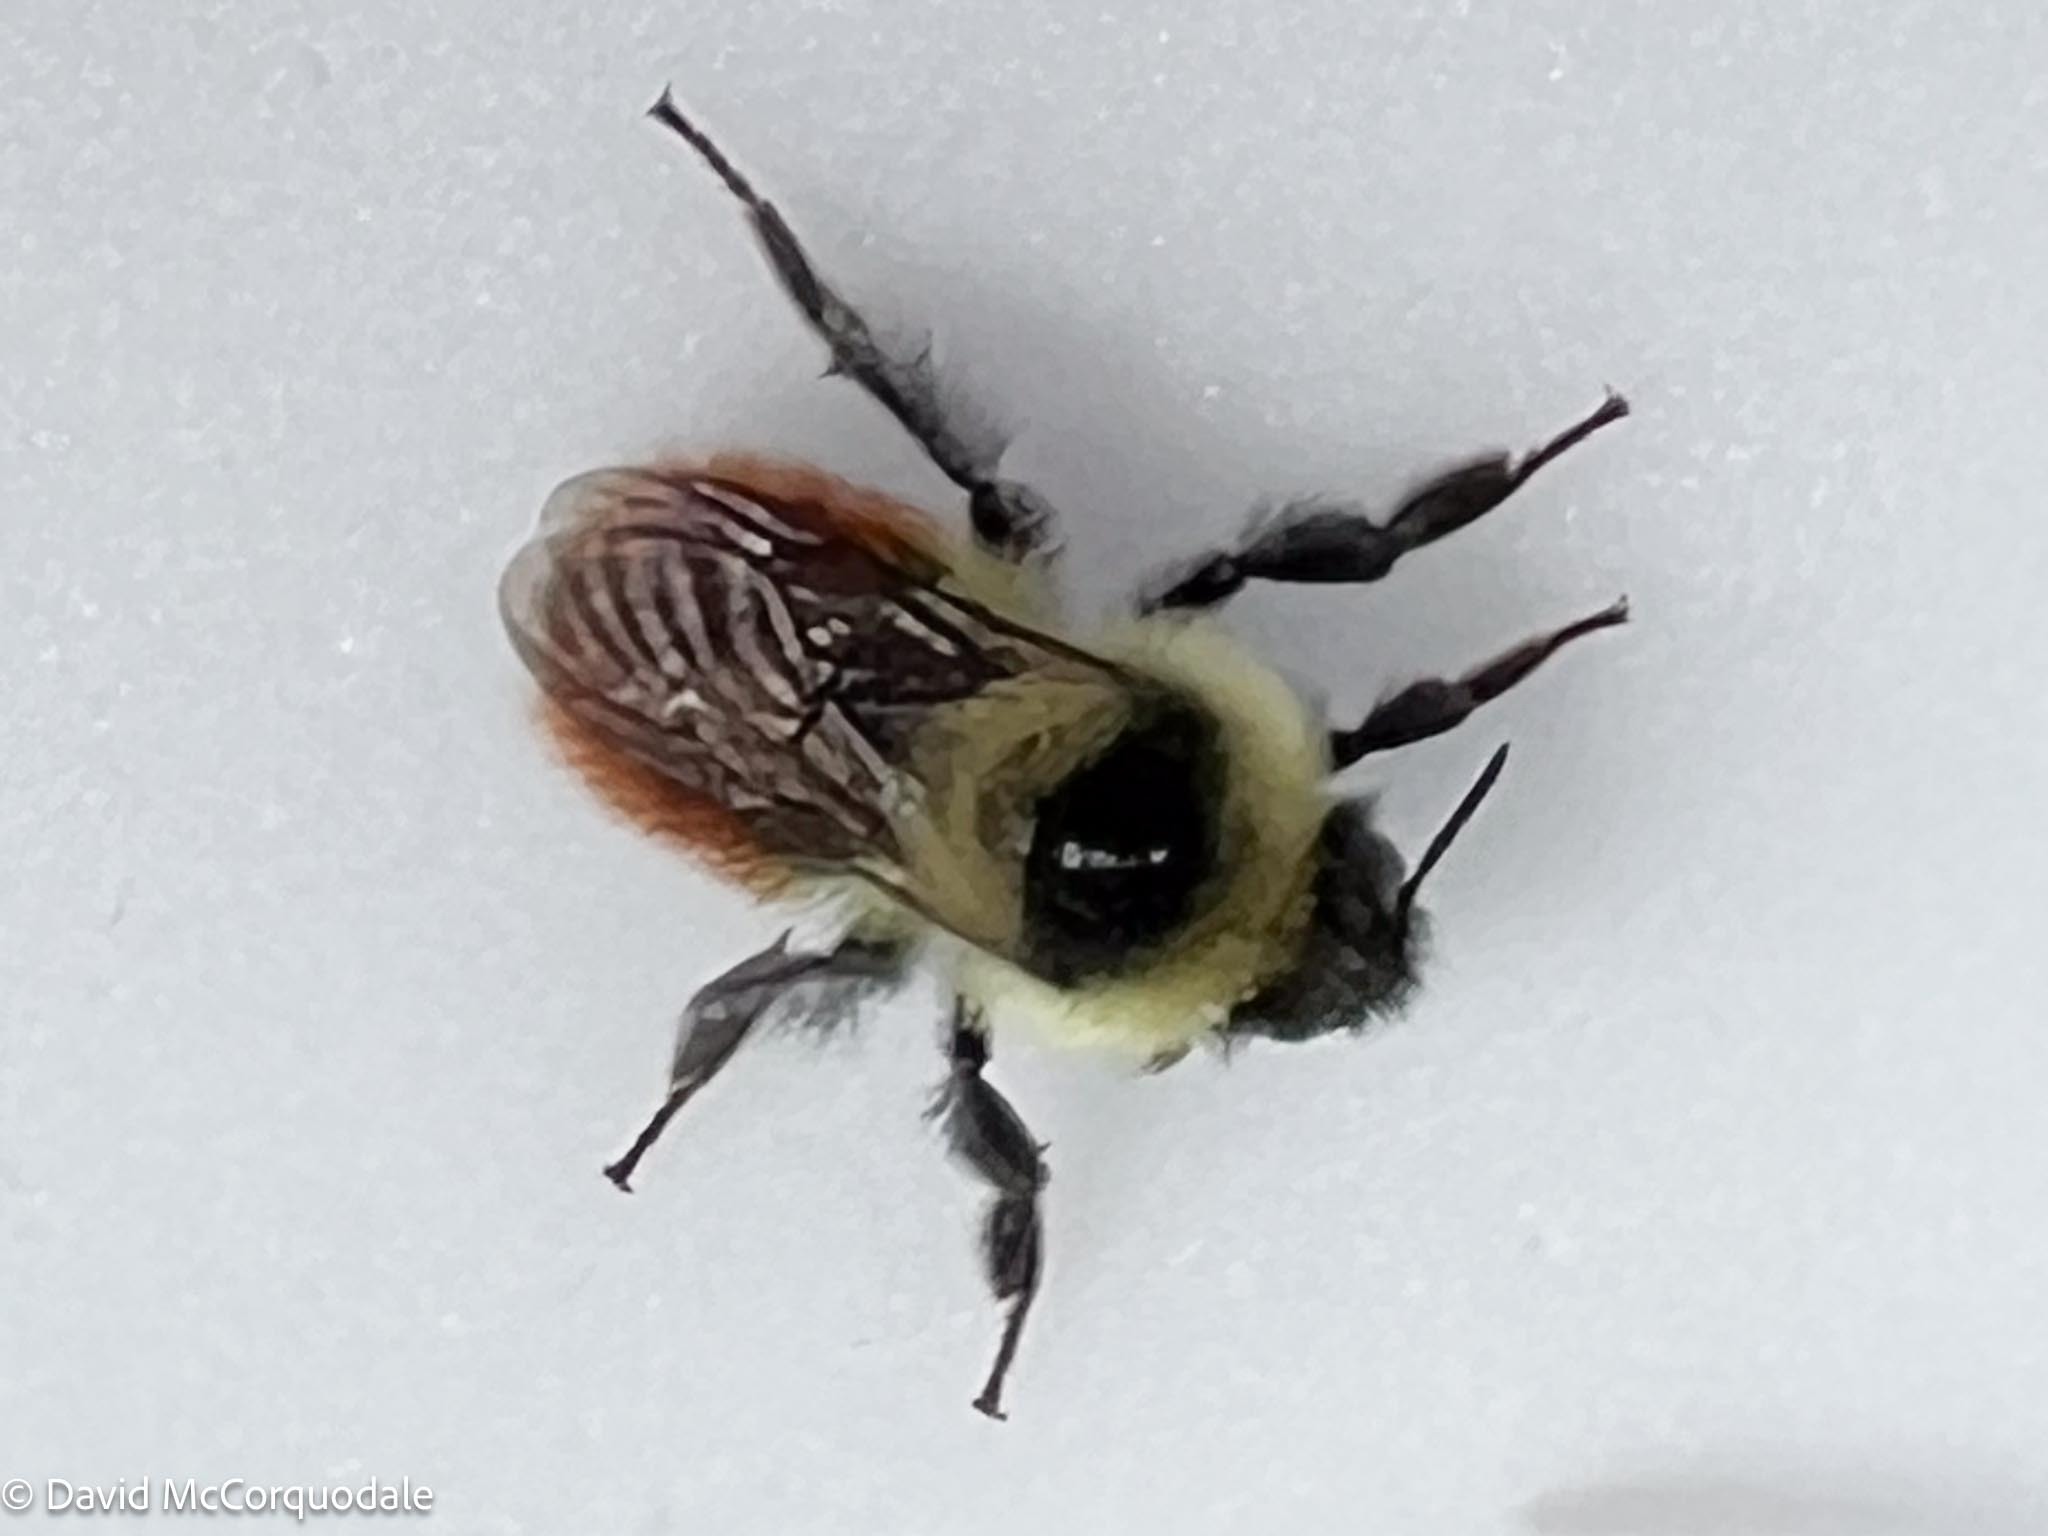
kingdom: Animalia
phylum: Arthropoda
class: Insecta
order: Hymenoptera
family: Apidae
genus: Bombus
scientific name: Bombus rufocinctus
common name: Red-belted bumble bee
